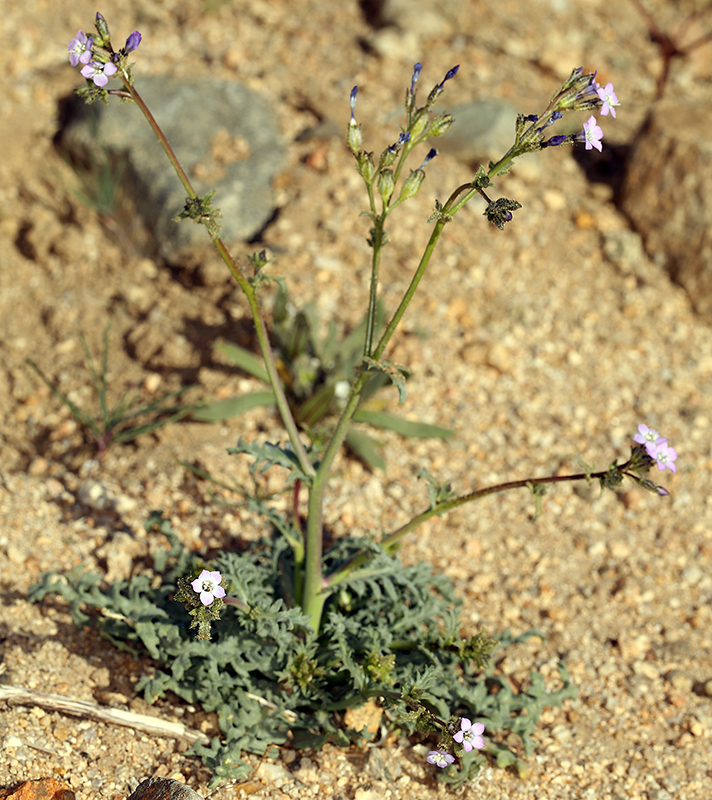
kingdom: Plantae
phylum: Tracheophyta
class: Magnoliopsida
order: Ericales
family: Polemoniaceae
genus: Gilia
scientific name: Gilia sinuata
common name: Rosy gilia
